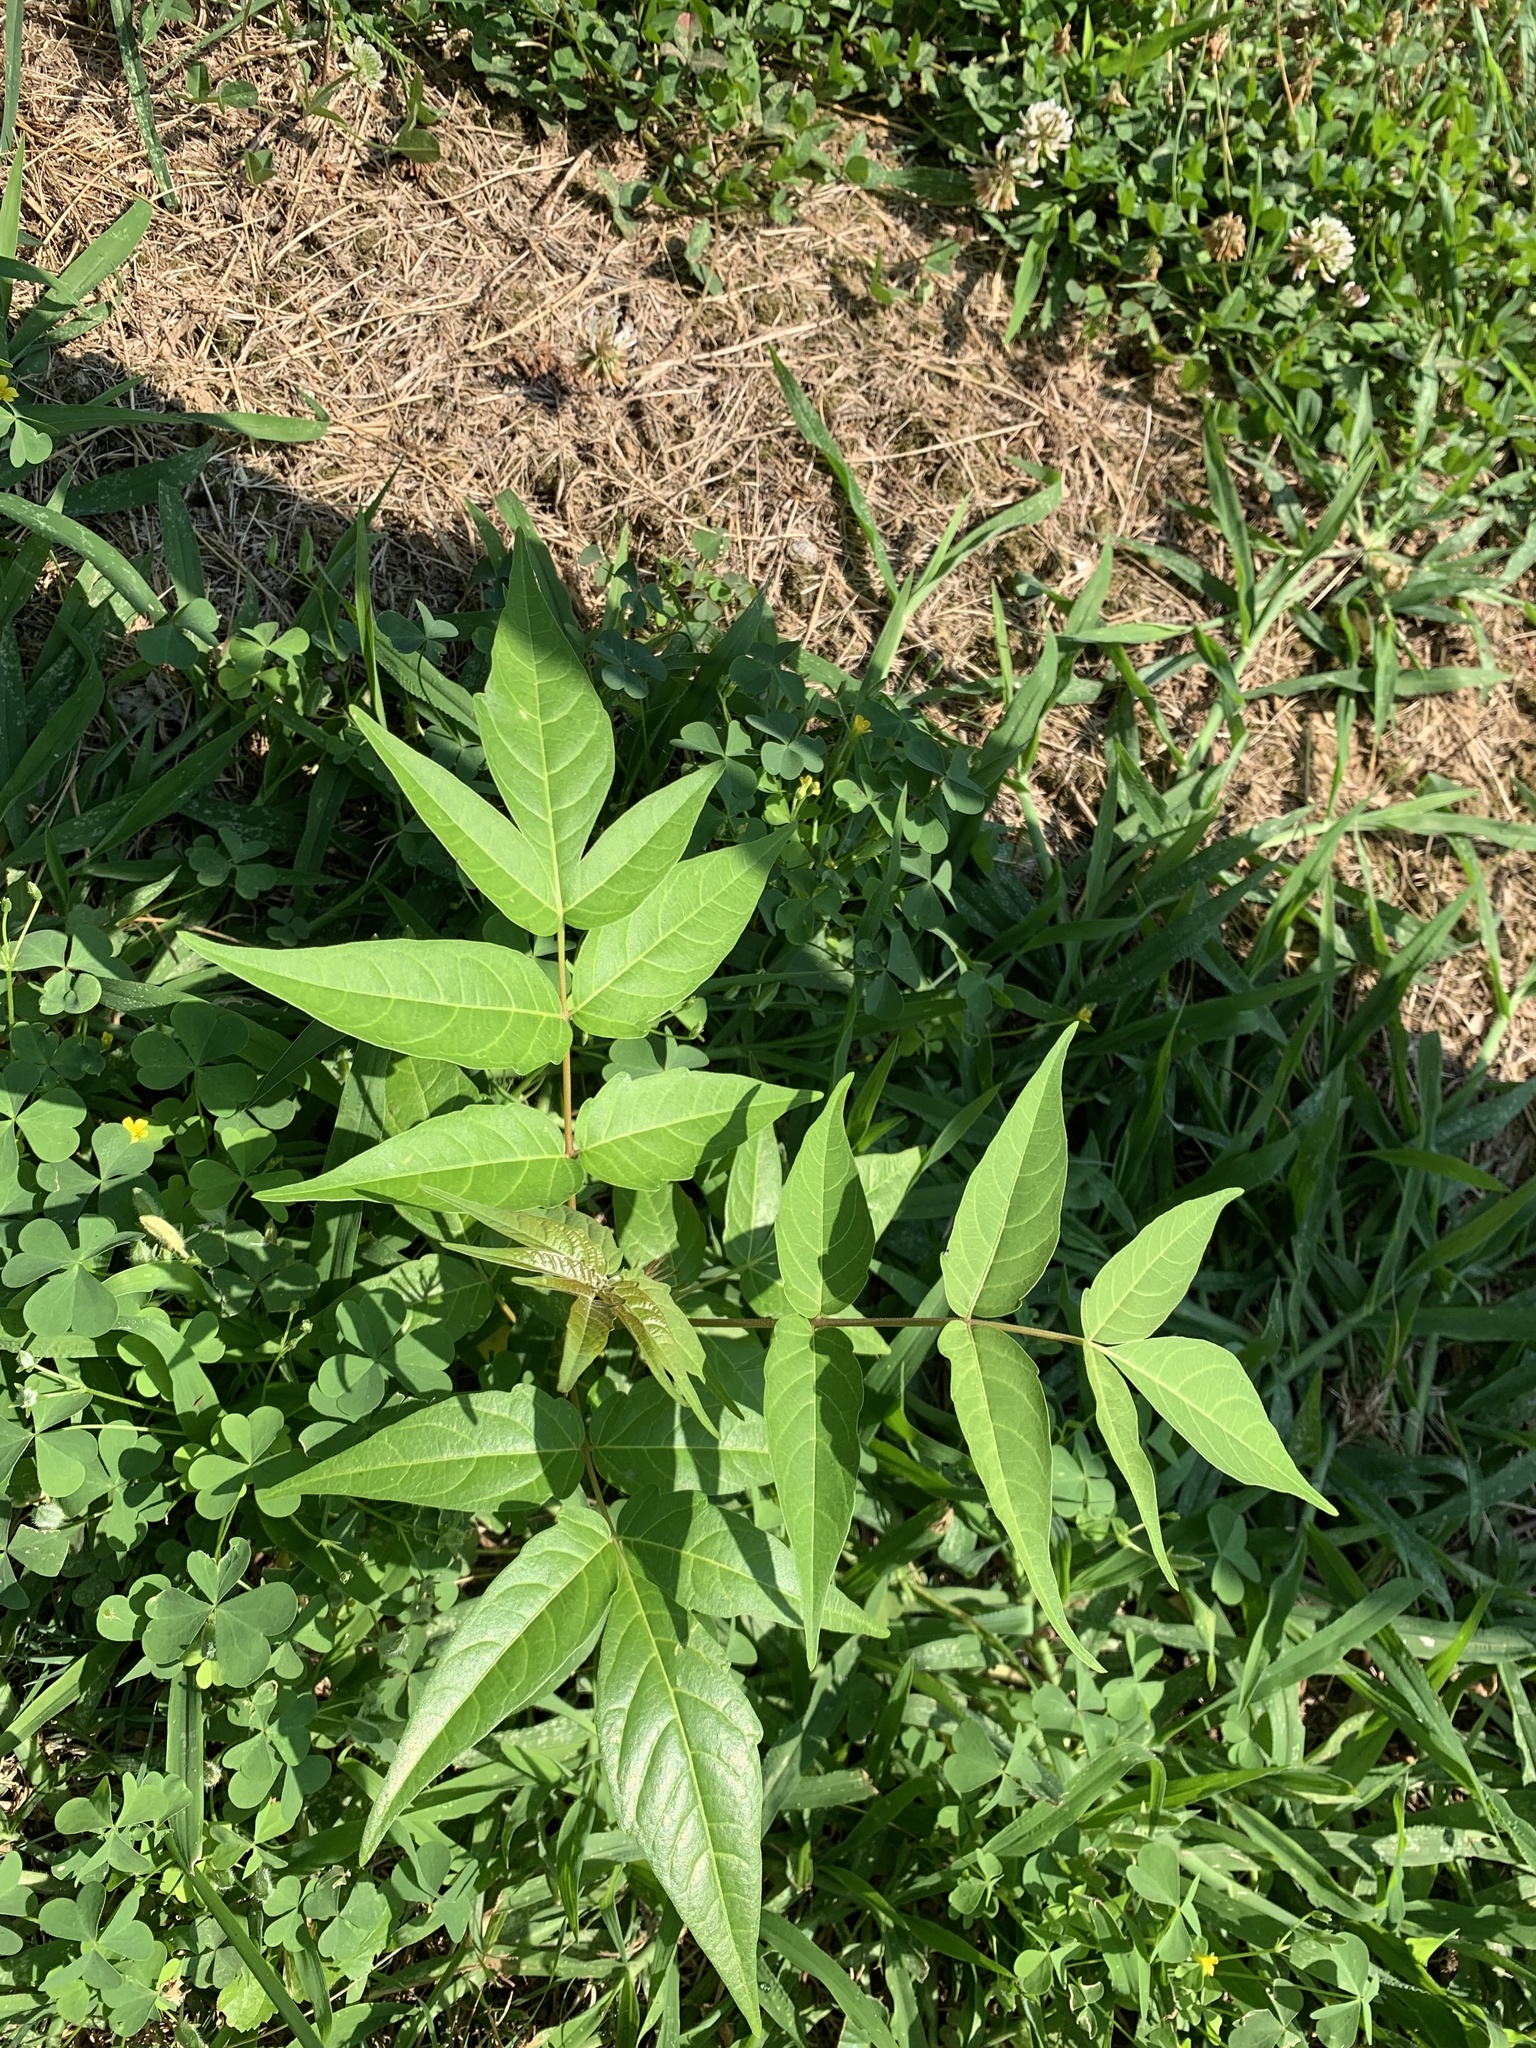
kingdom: Plantae
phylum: Tracheophyta
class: Magnoliopsida
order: Sapindales
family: Simaroubaceae
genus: Ailanthus
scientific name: Ailanthus altissima
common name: Tree-of-heaven
